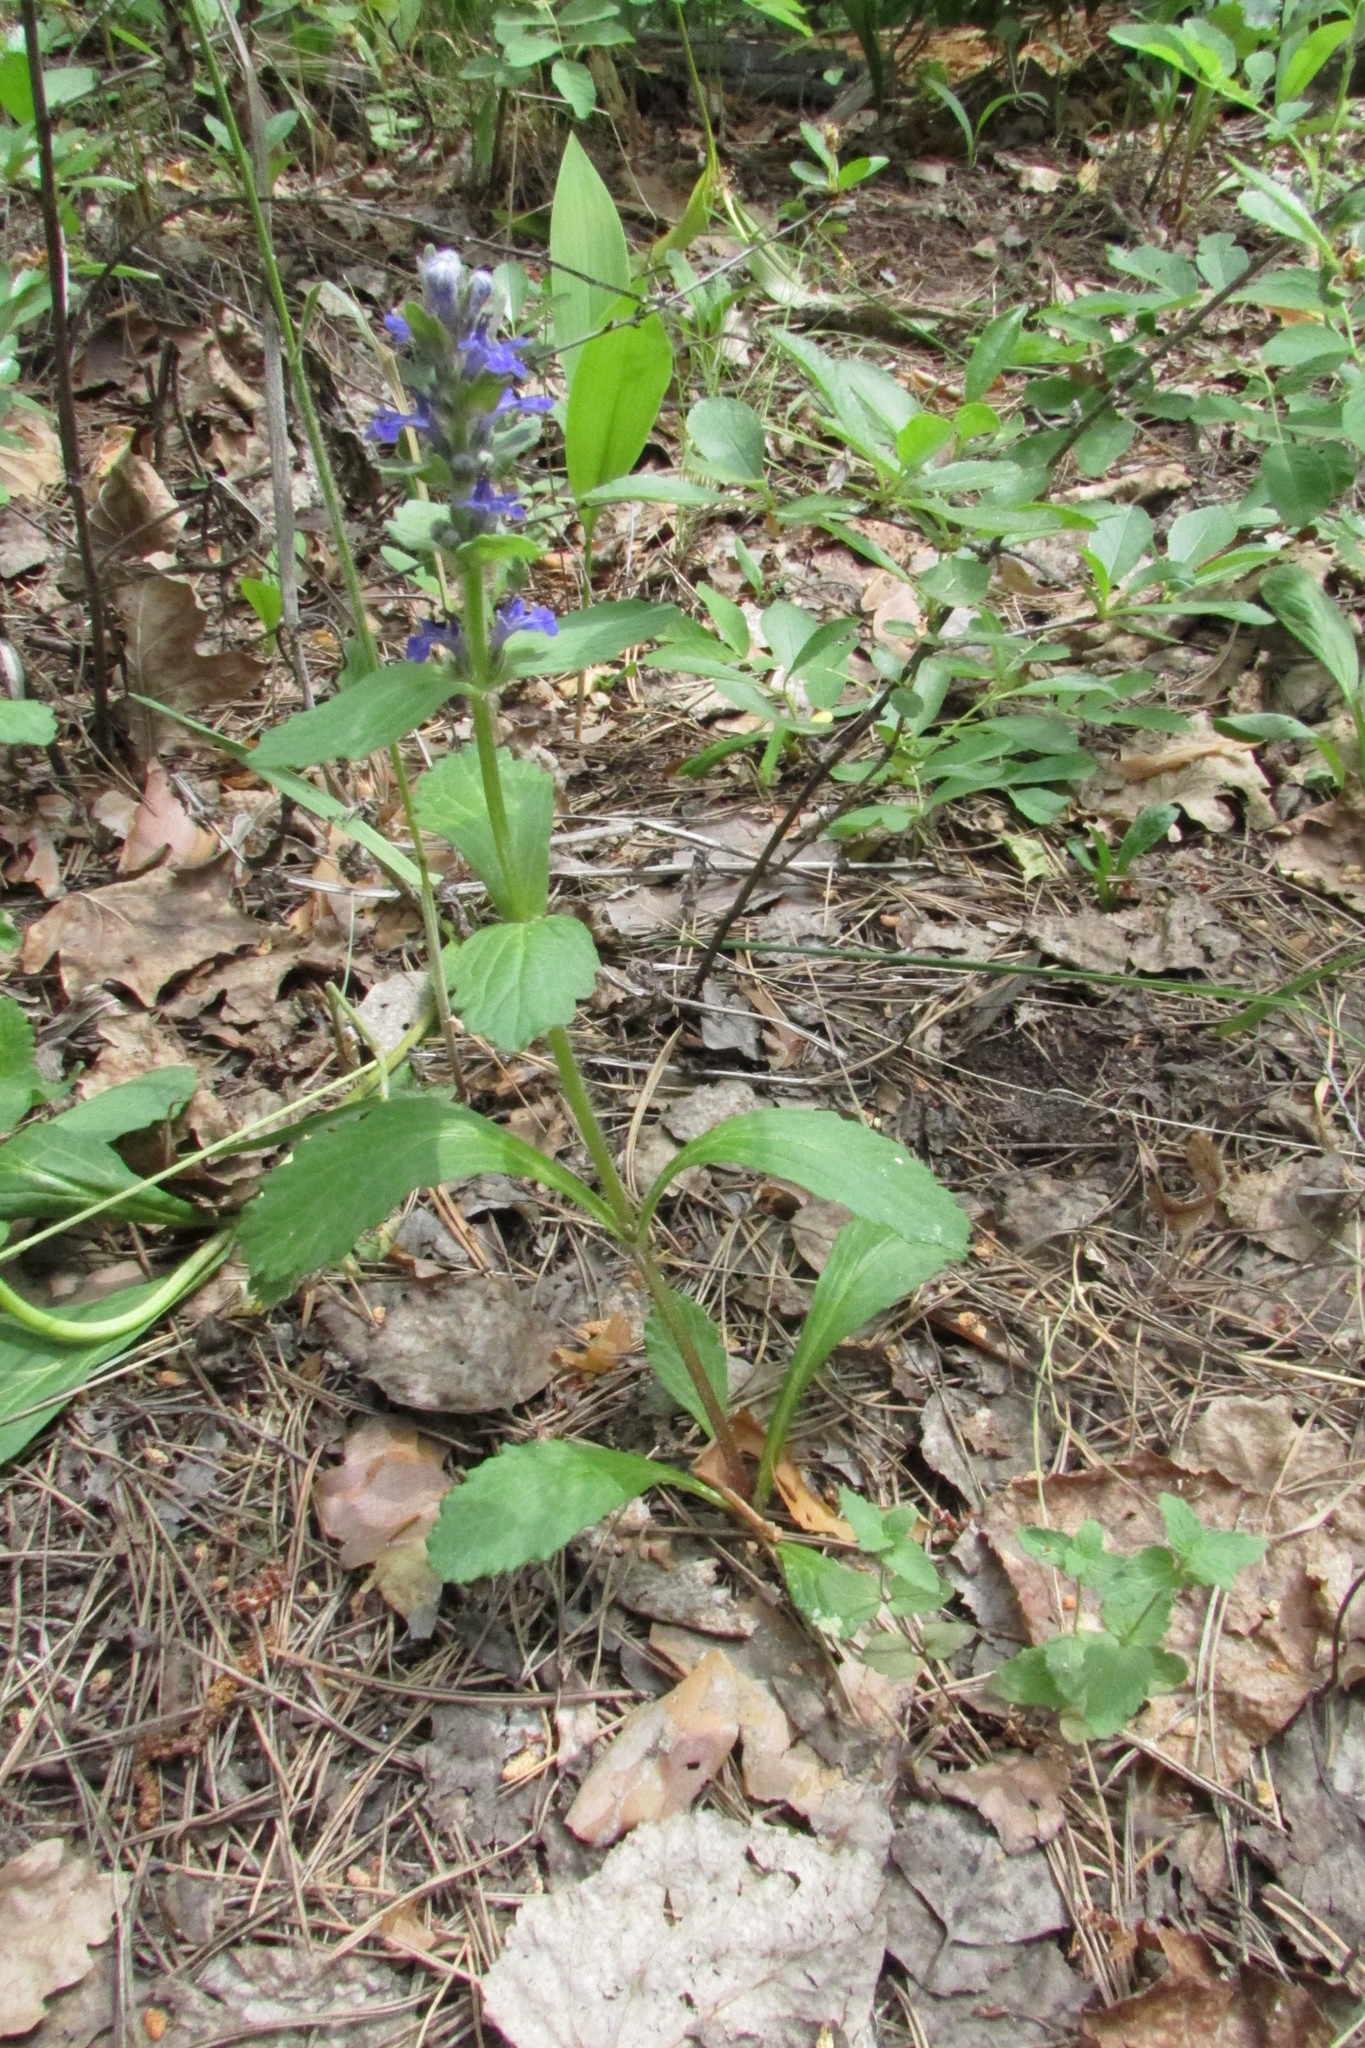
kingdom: Plantae
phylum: Tracheophyta
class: Magnoliopsida
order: Lamiales
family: Lamiaceae
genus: Ajuga
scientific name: Ajuga genevensis
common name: Blue bugle
